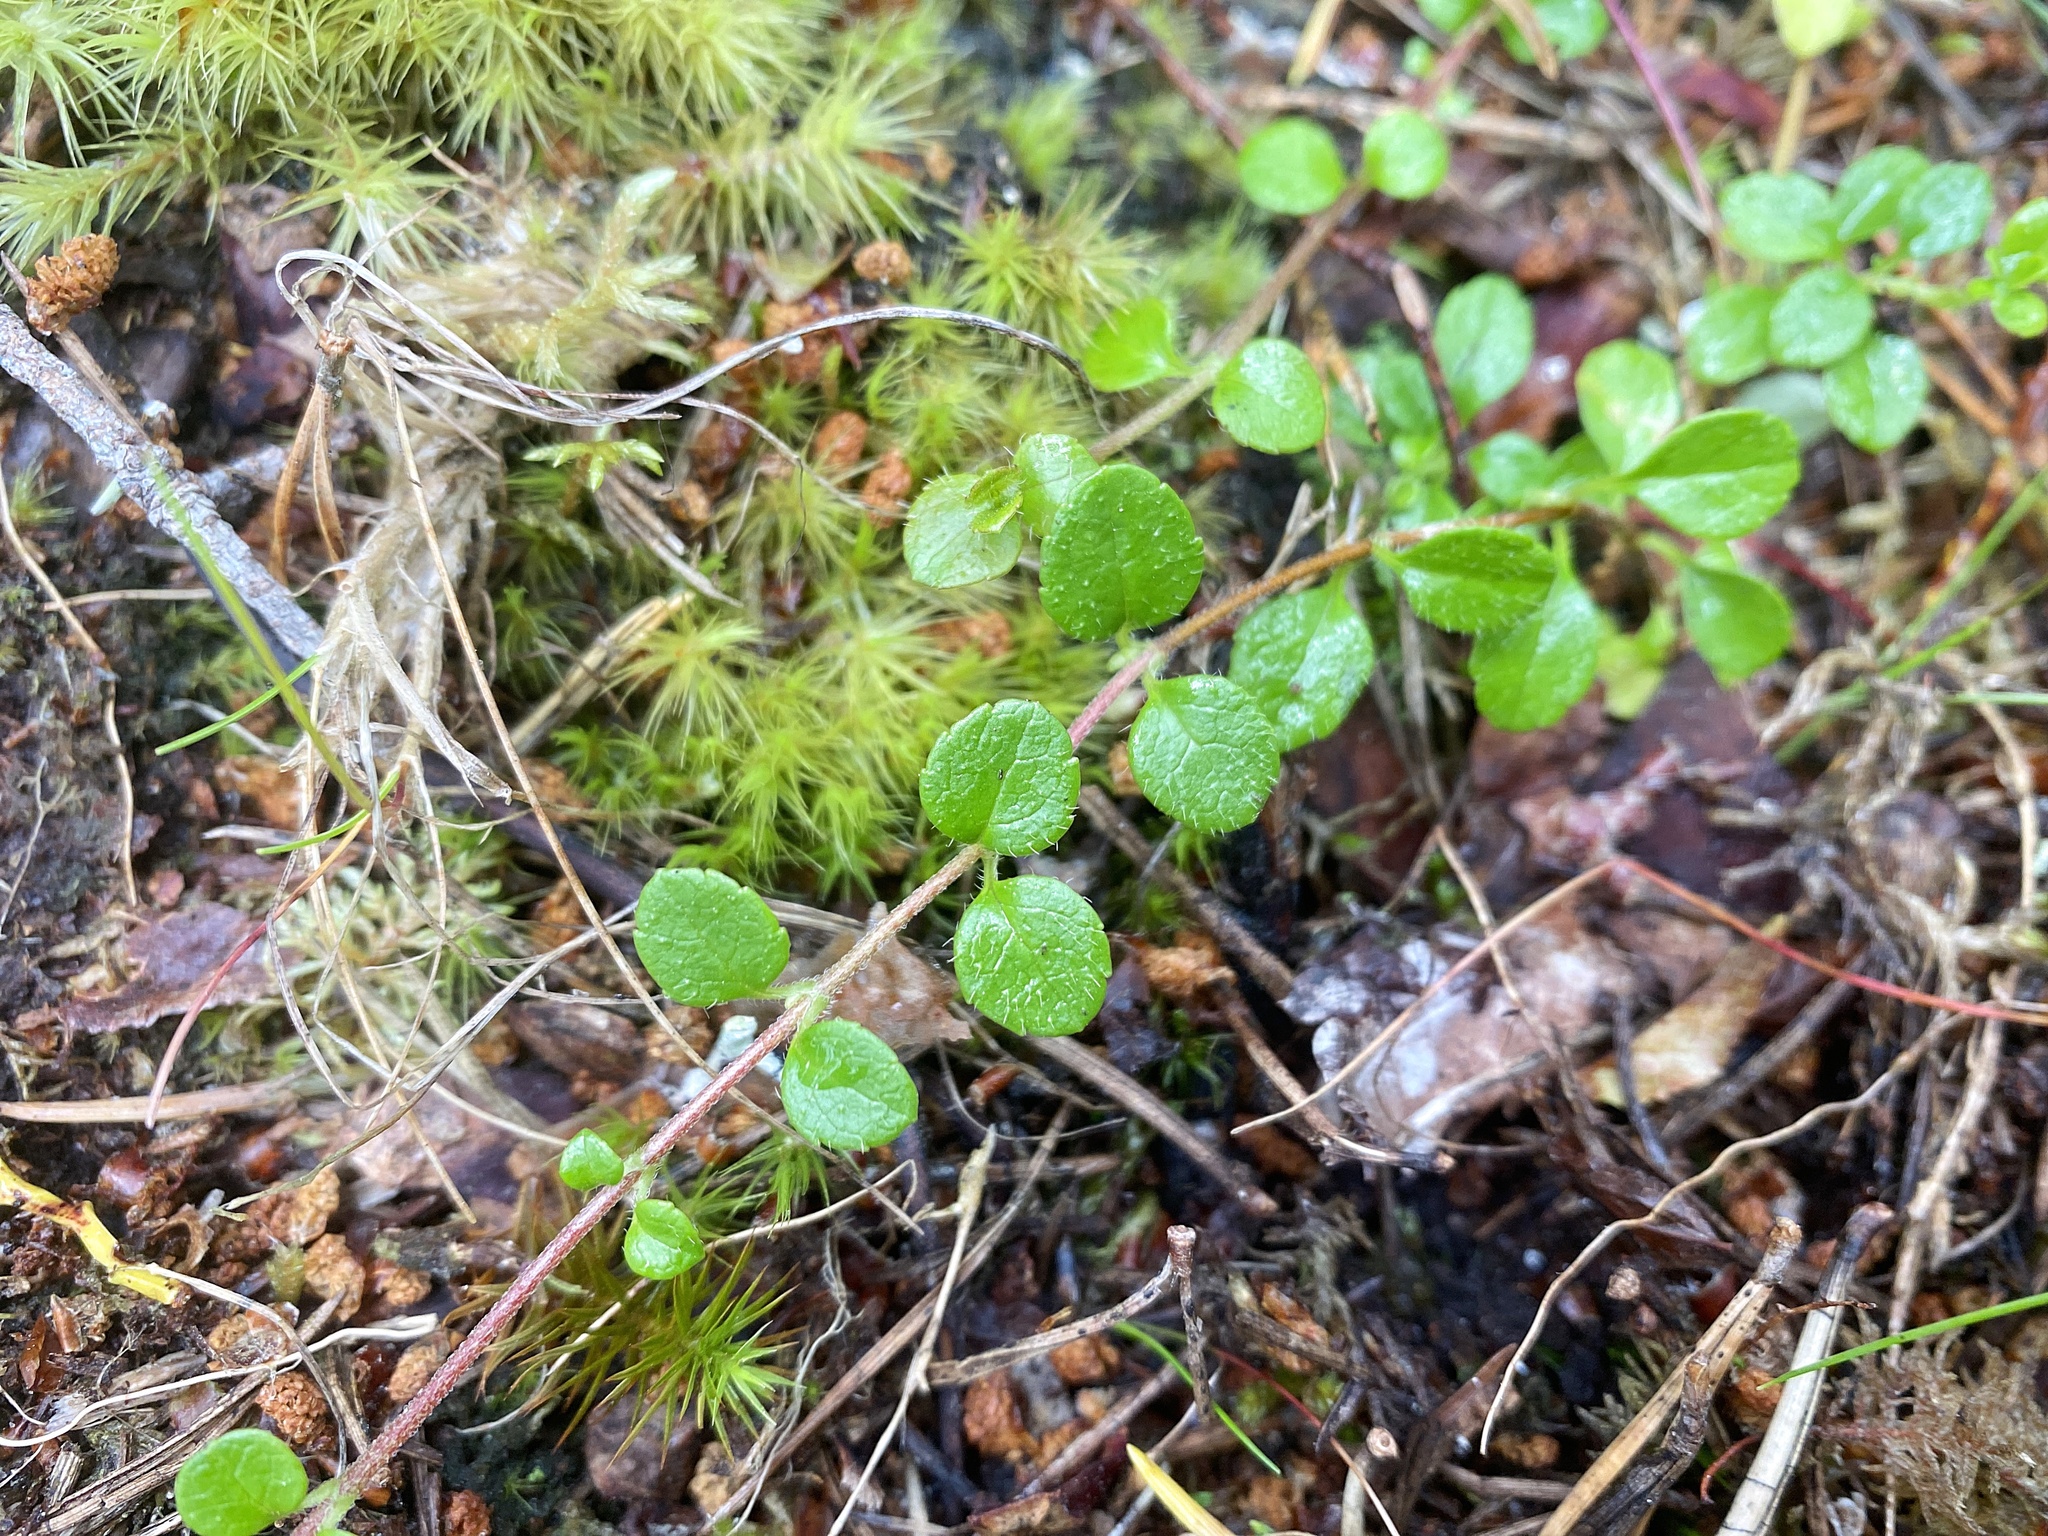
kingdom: Plantae
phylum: Tracheophyta
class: Magnoliopsida
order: Dipsacales
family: Caprifoliaceae
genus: Linnaea
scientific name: Linnaea borealis
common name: Twinflower
